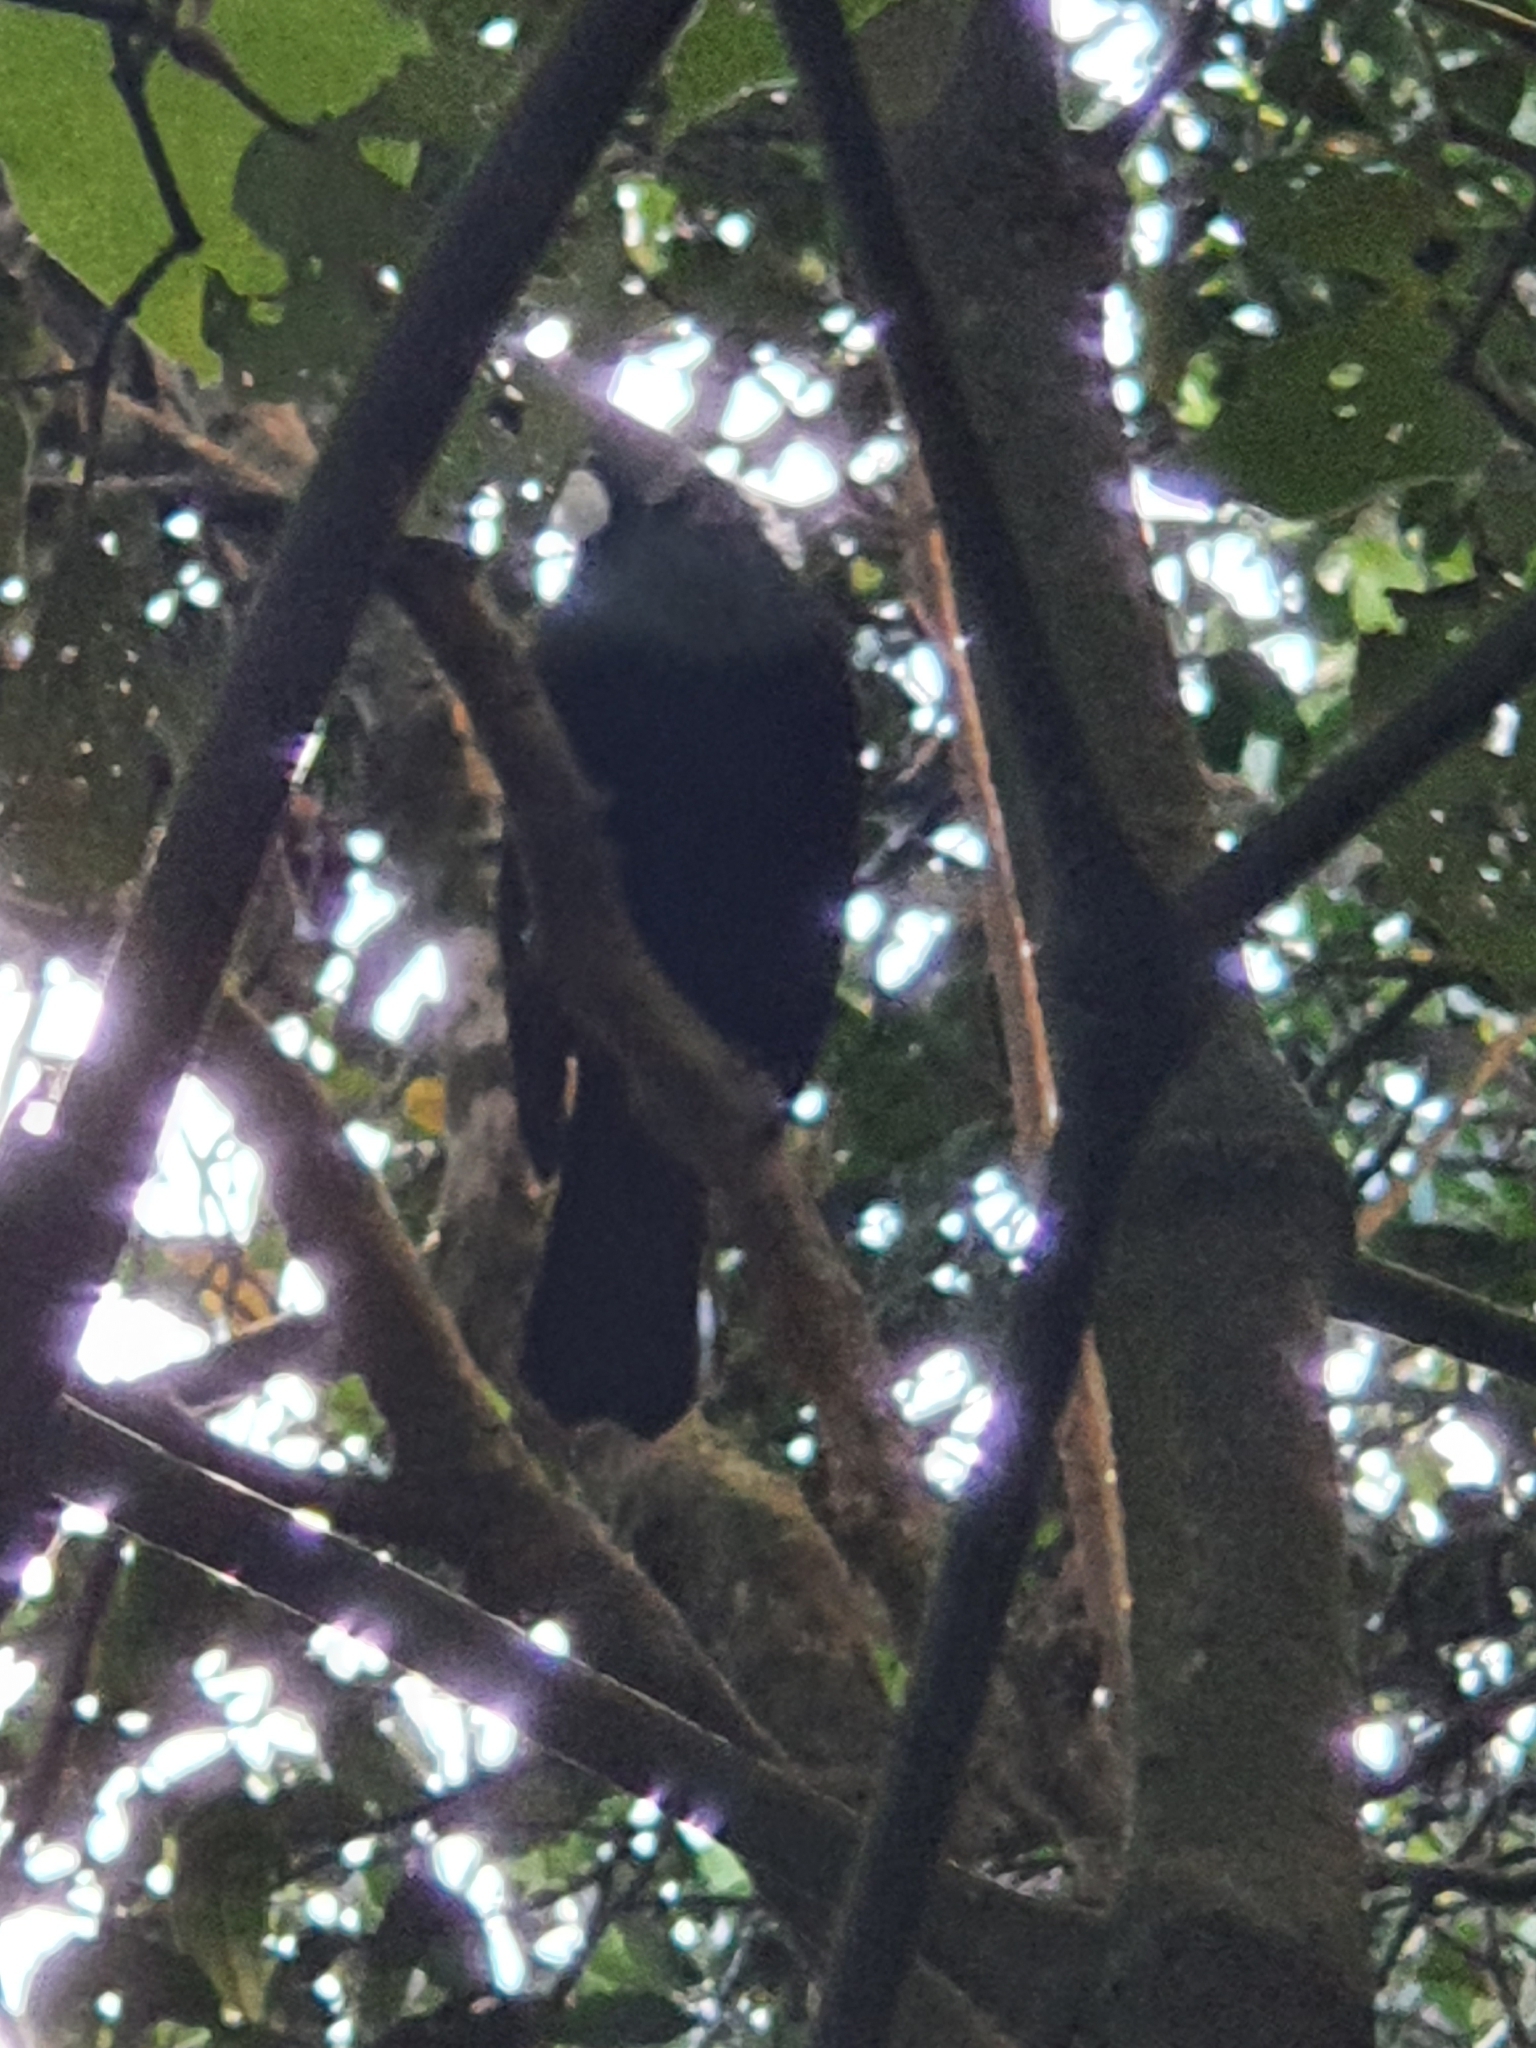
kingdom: Animalia
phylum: Chordata
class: Aves
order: Passeriformes
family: Meliphagidae
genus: Prosthemadera
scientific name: Prosthemadera novaeseelandiae
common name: Tui
